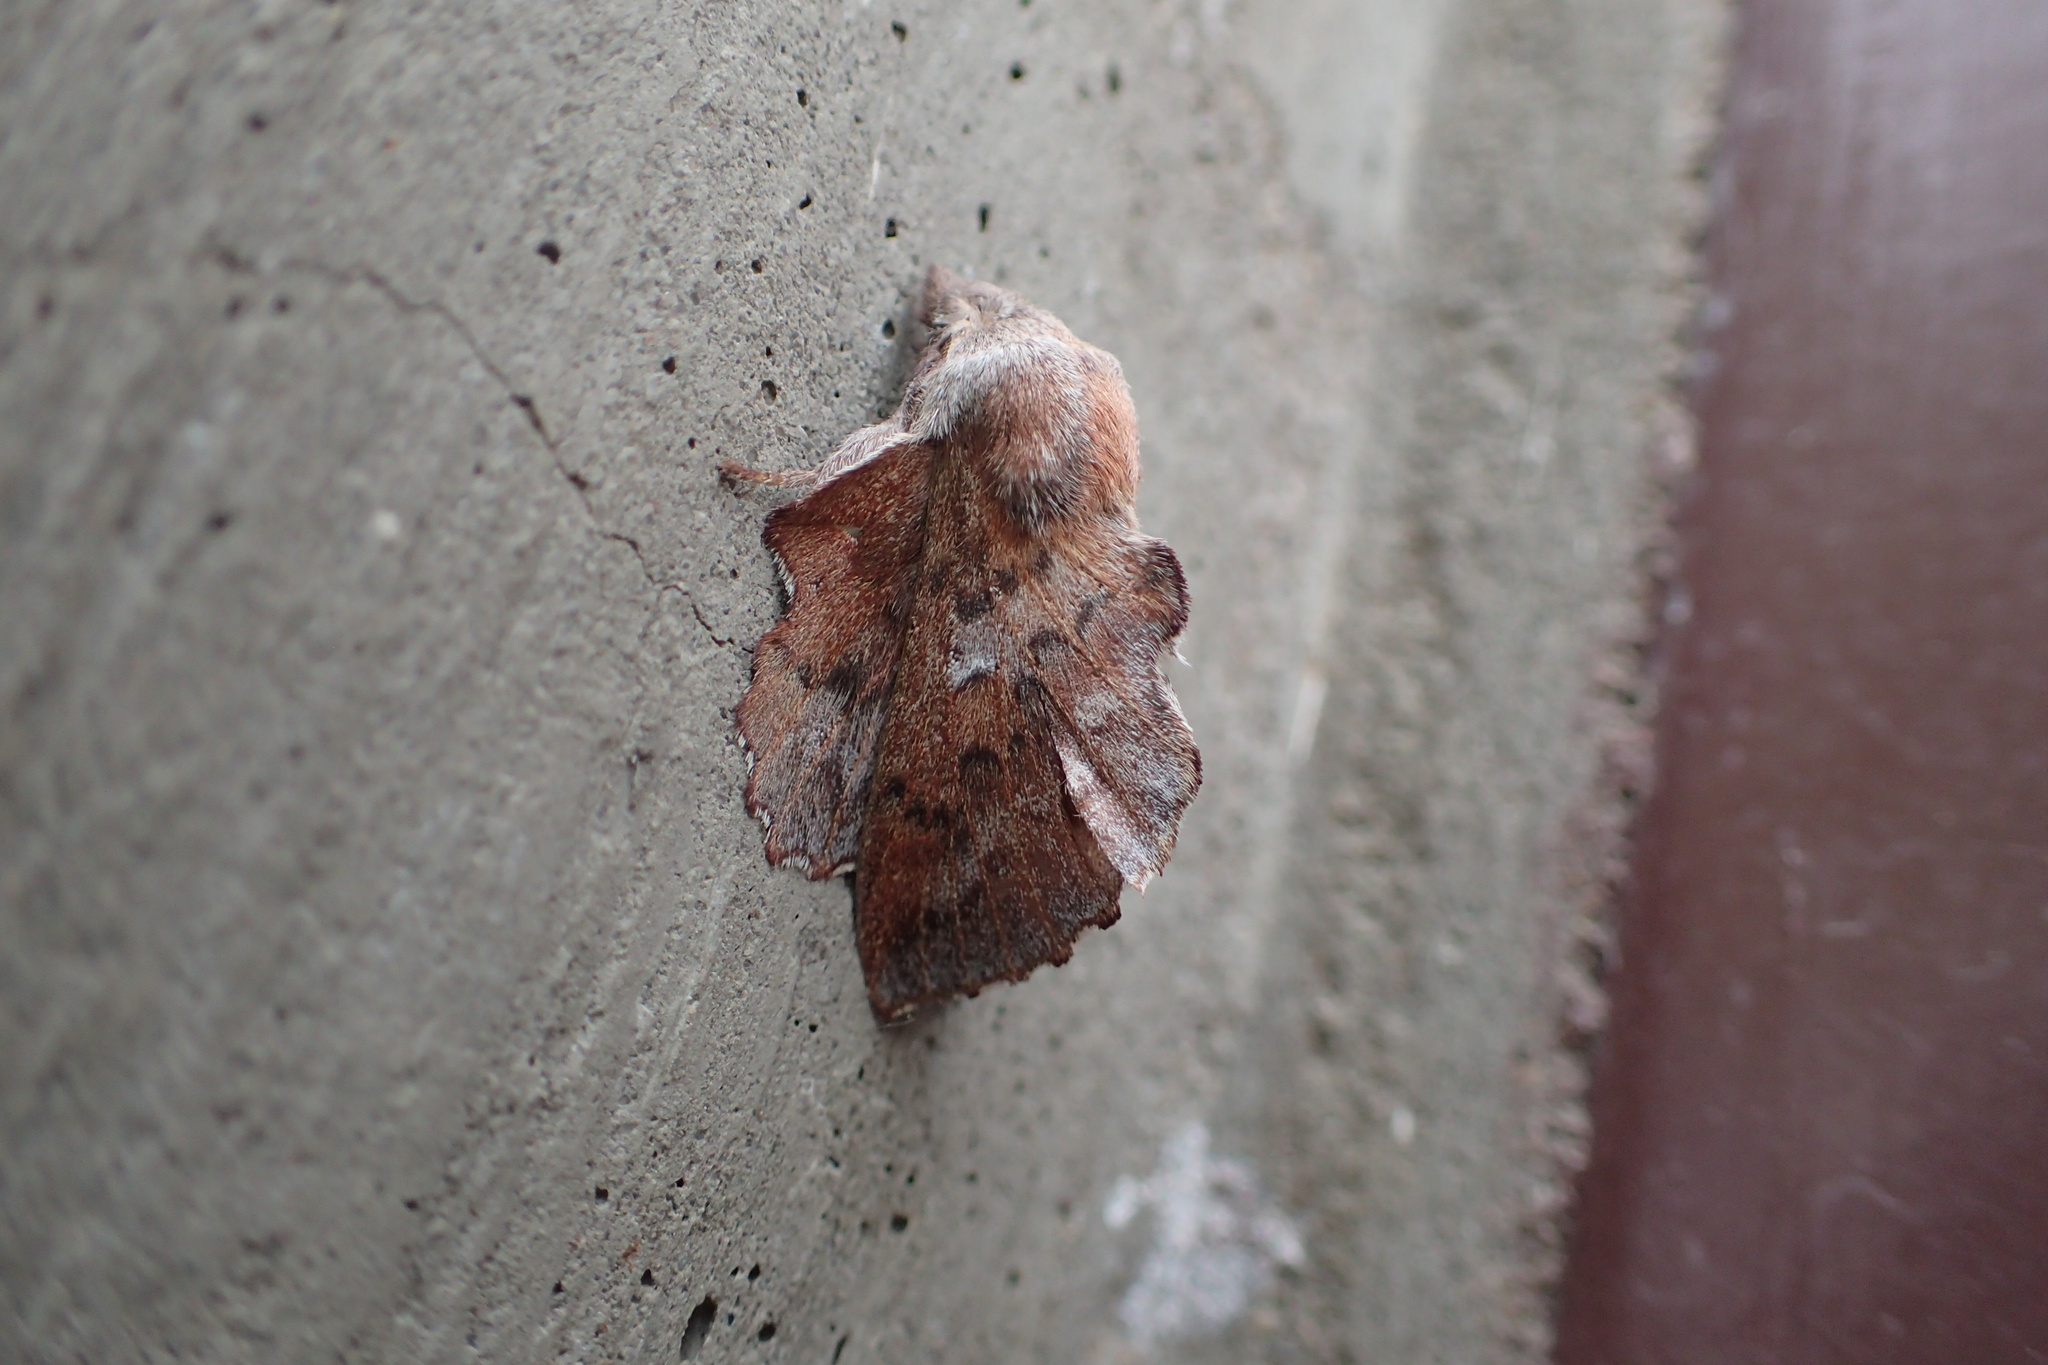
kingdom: Animalia
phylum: Arthropoda
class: Insecta
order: Lepidoptera
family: Lasiocampidae
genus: Phyllodesma
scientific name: Phyllodesma americana
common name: American lappet moth
